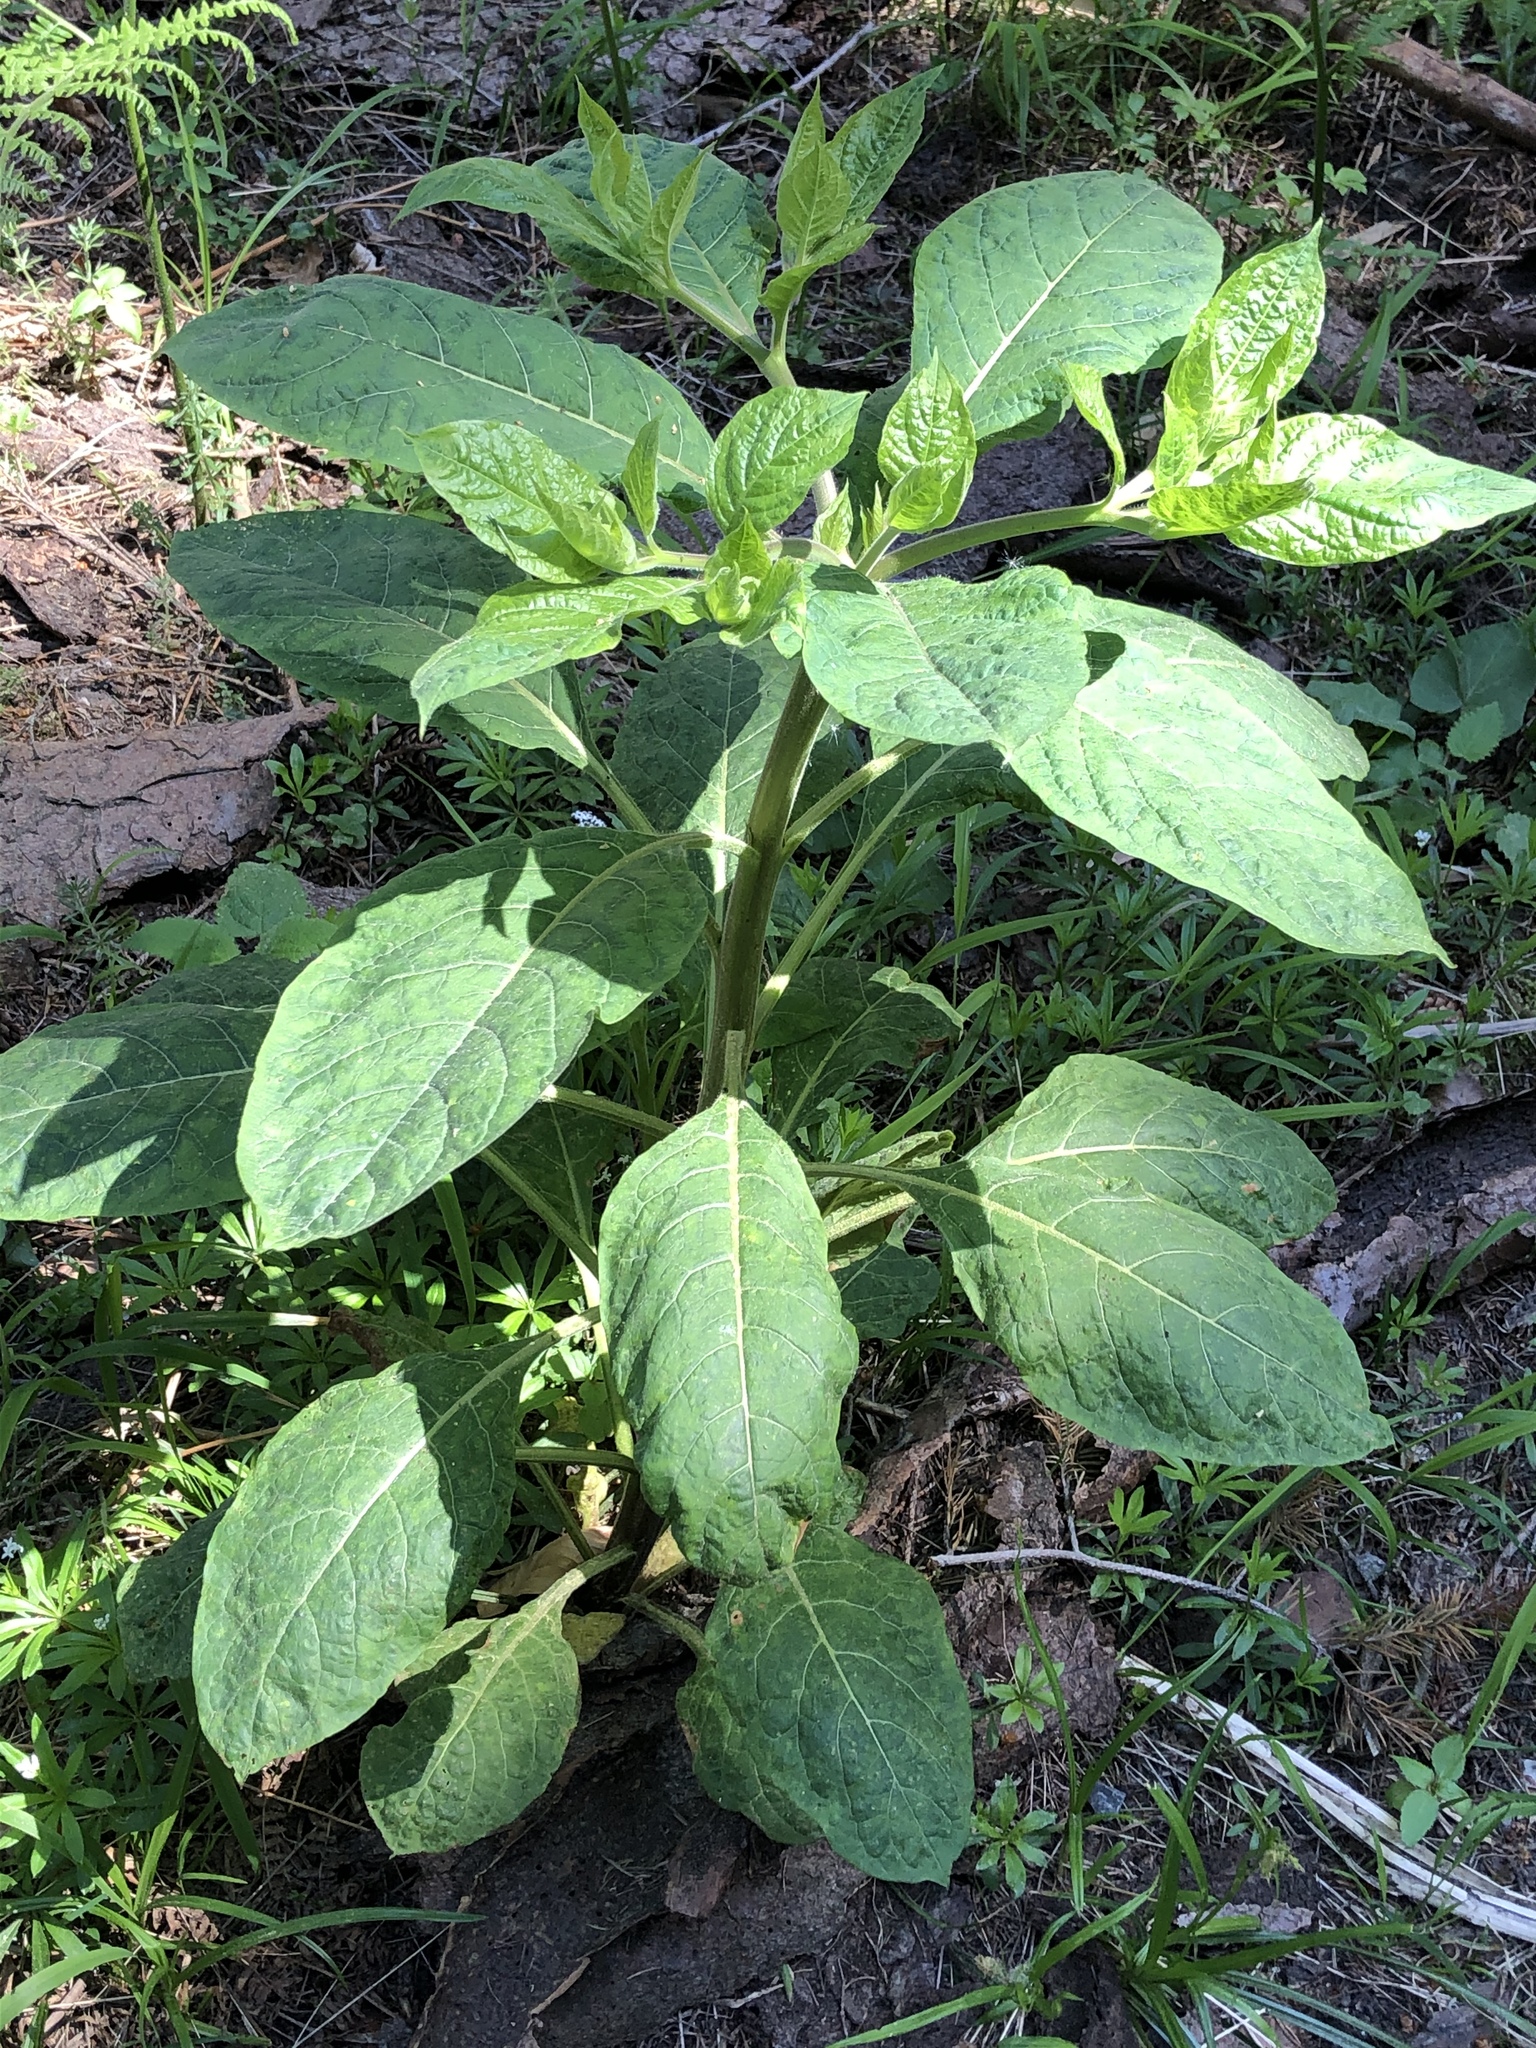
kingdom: Plantae
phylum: Tracheophyta
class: Magnoliopsida
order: Solanales
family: Solanaceae
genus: Atropa
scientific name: Atropa belladonna
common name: Deadly nightshade
